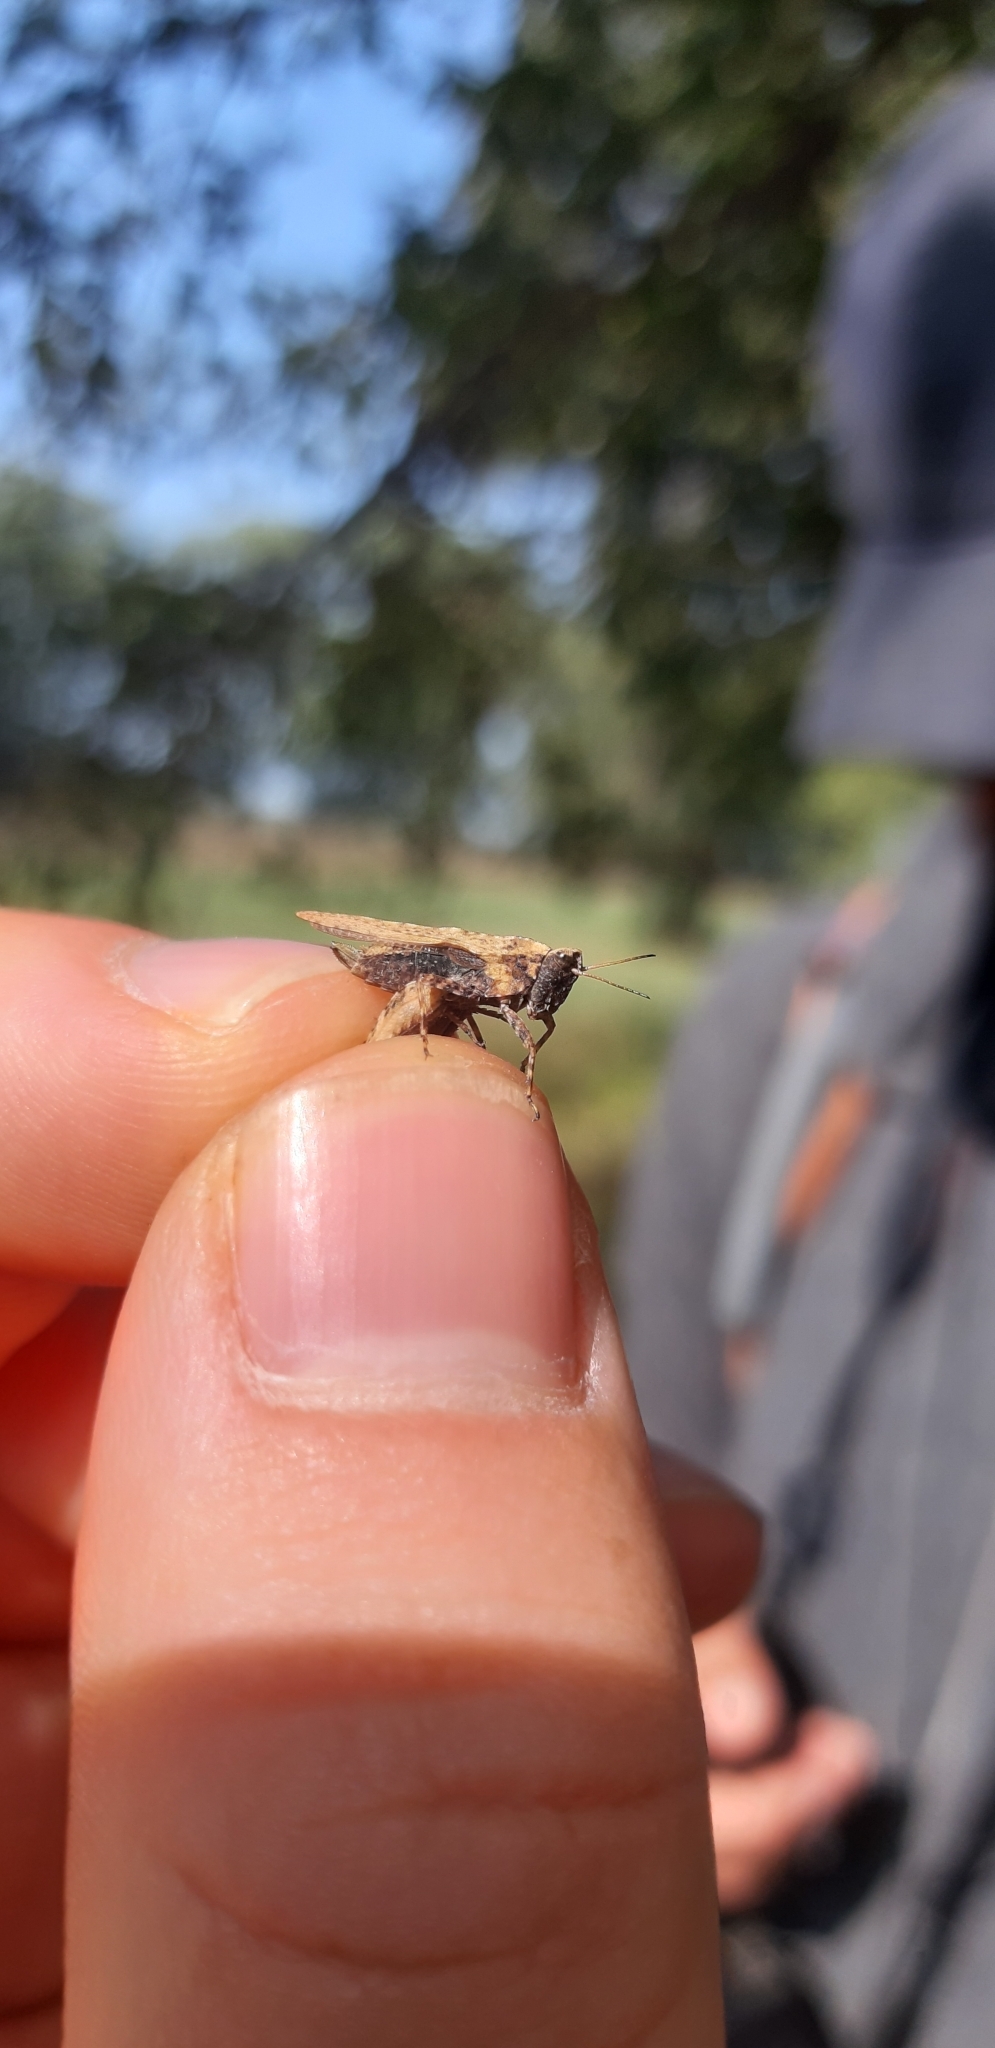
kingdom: Animalia
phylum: Arthropoda
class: Insecta
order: Orthoptera
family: Tetrigidae
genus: Tetrix
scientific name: Tetrix subulata
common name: Slender ground-hopper
